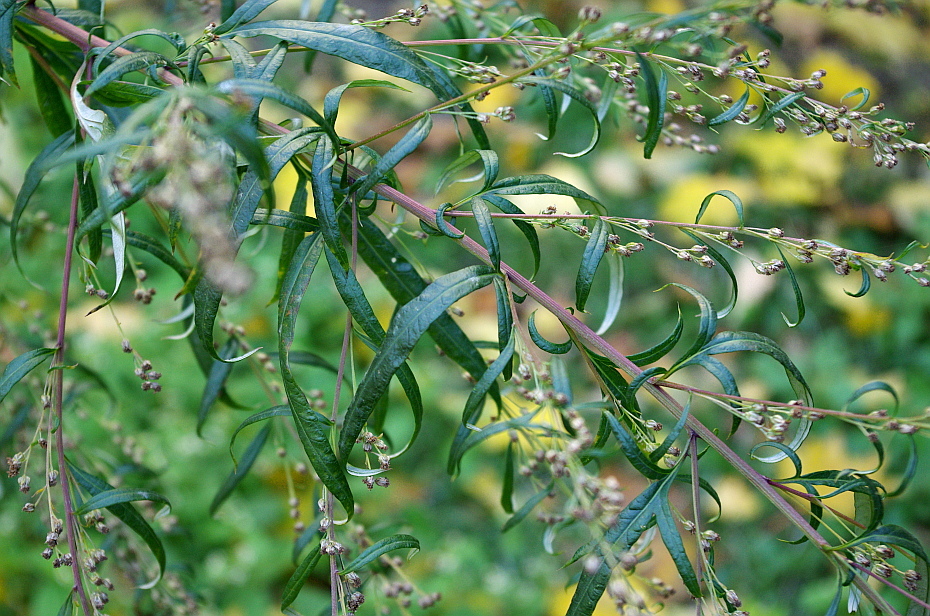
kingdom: Plantae
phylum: Tracheophyta
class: Magnoliopsida
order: Asterales
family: Asteraceae
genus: Artemisia
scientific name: Artemisia vulgaris
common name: Mugwort
